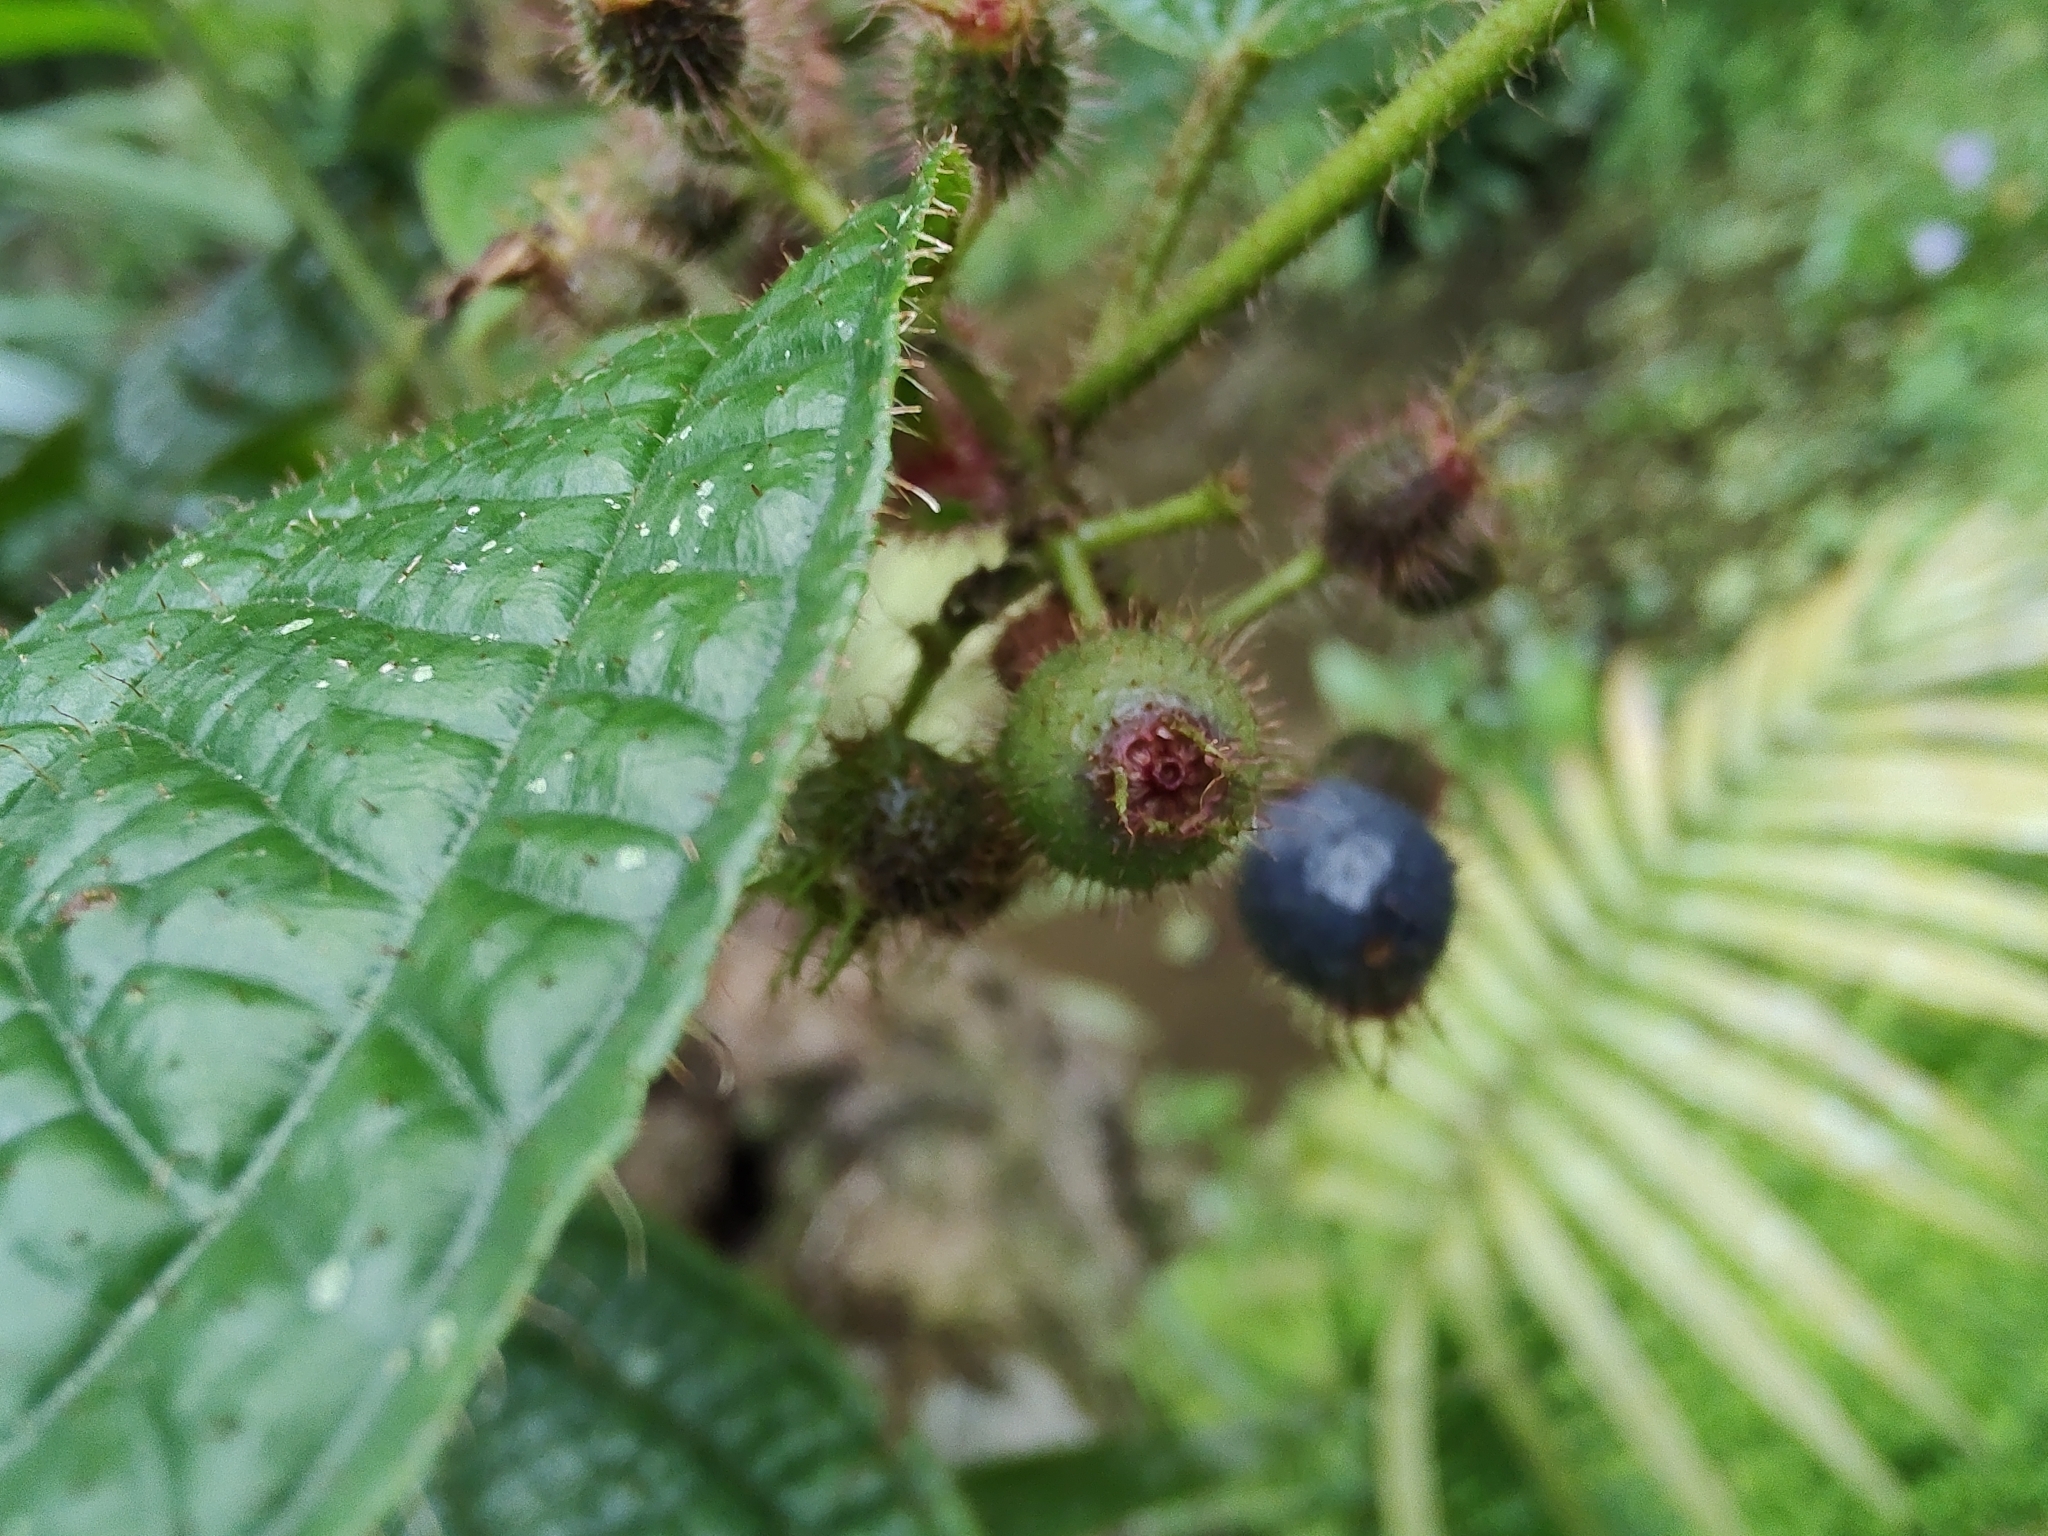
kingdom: Plantae
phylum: Tracheophyta
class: Magnoliopsida
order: Myrtales
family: Melastomataceae
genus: Miconia
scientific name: Miconia crenata
